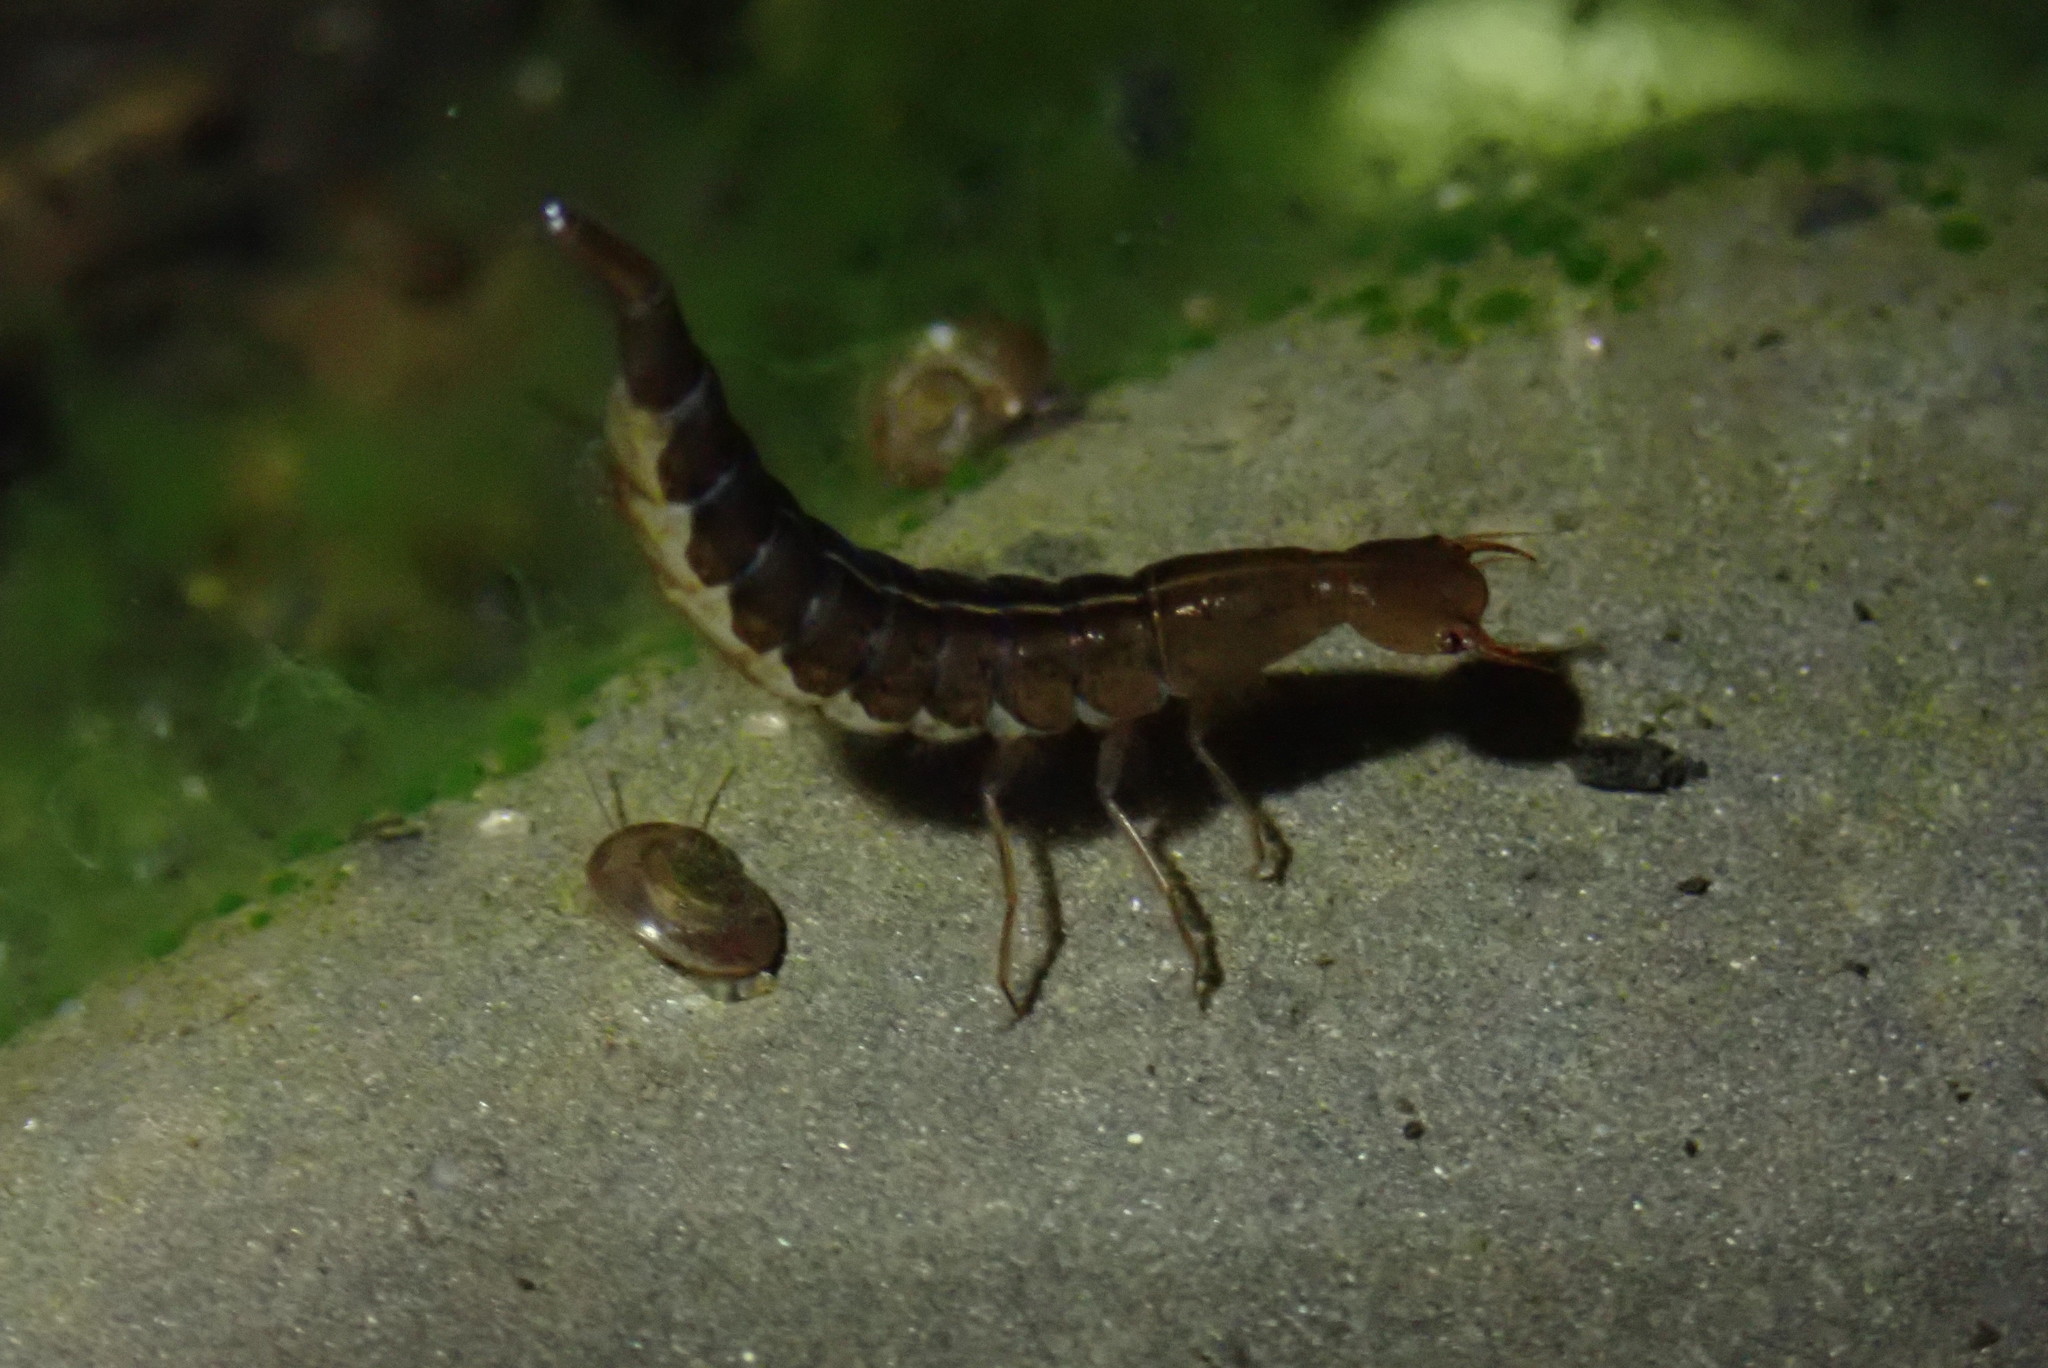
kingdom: Animalia
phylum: Arthropoda
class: Insecta
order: Coleoptera
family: Dytiscidae
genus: Dytiscus
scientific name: Dytiscus
